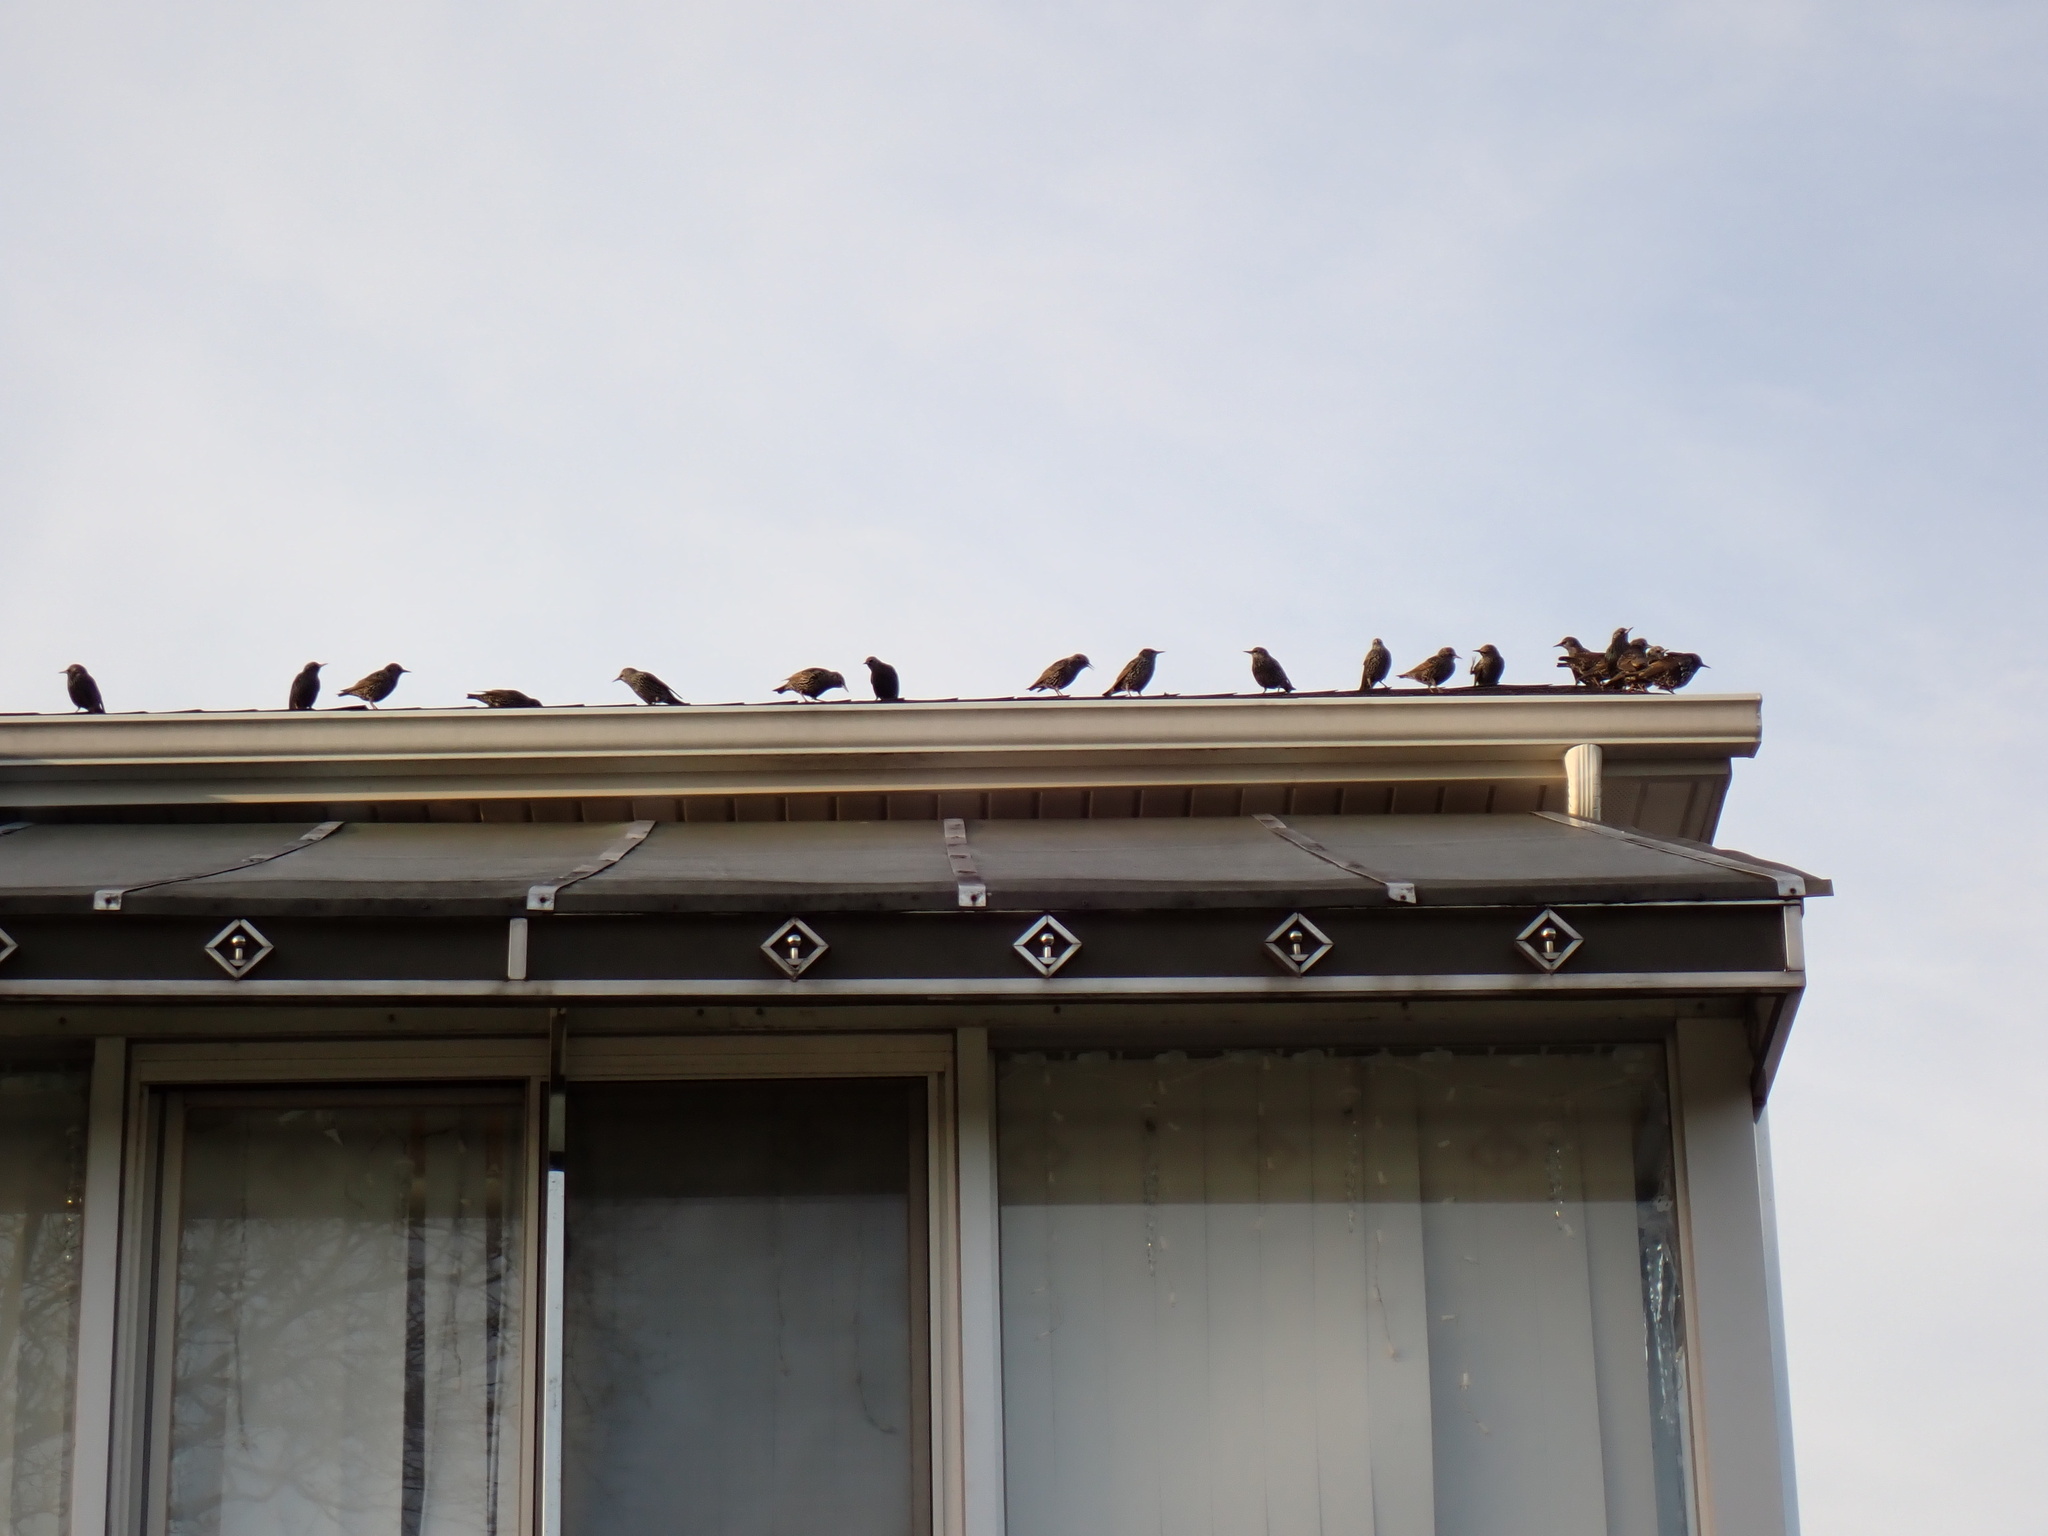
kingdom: Animalia
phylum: Chordata
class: Aves
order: Passeriformes
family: Sturnidae
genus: Sturnus
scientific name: Sturnus vulgaris
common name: Common starling
